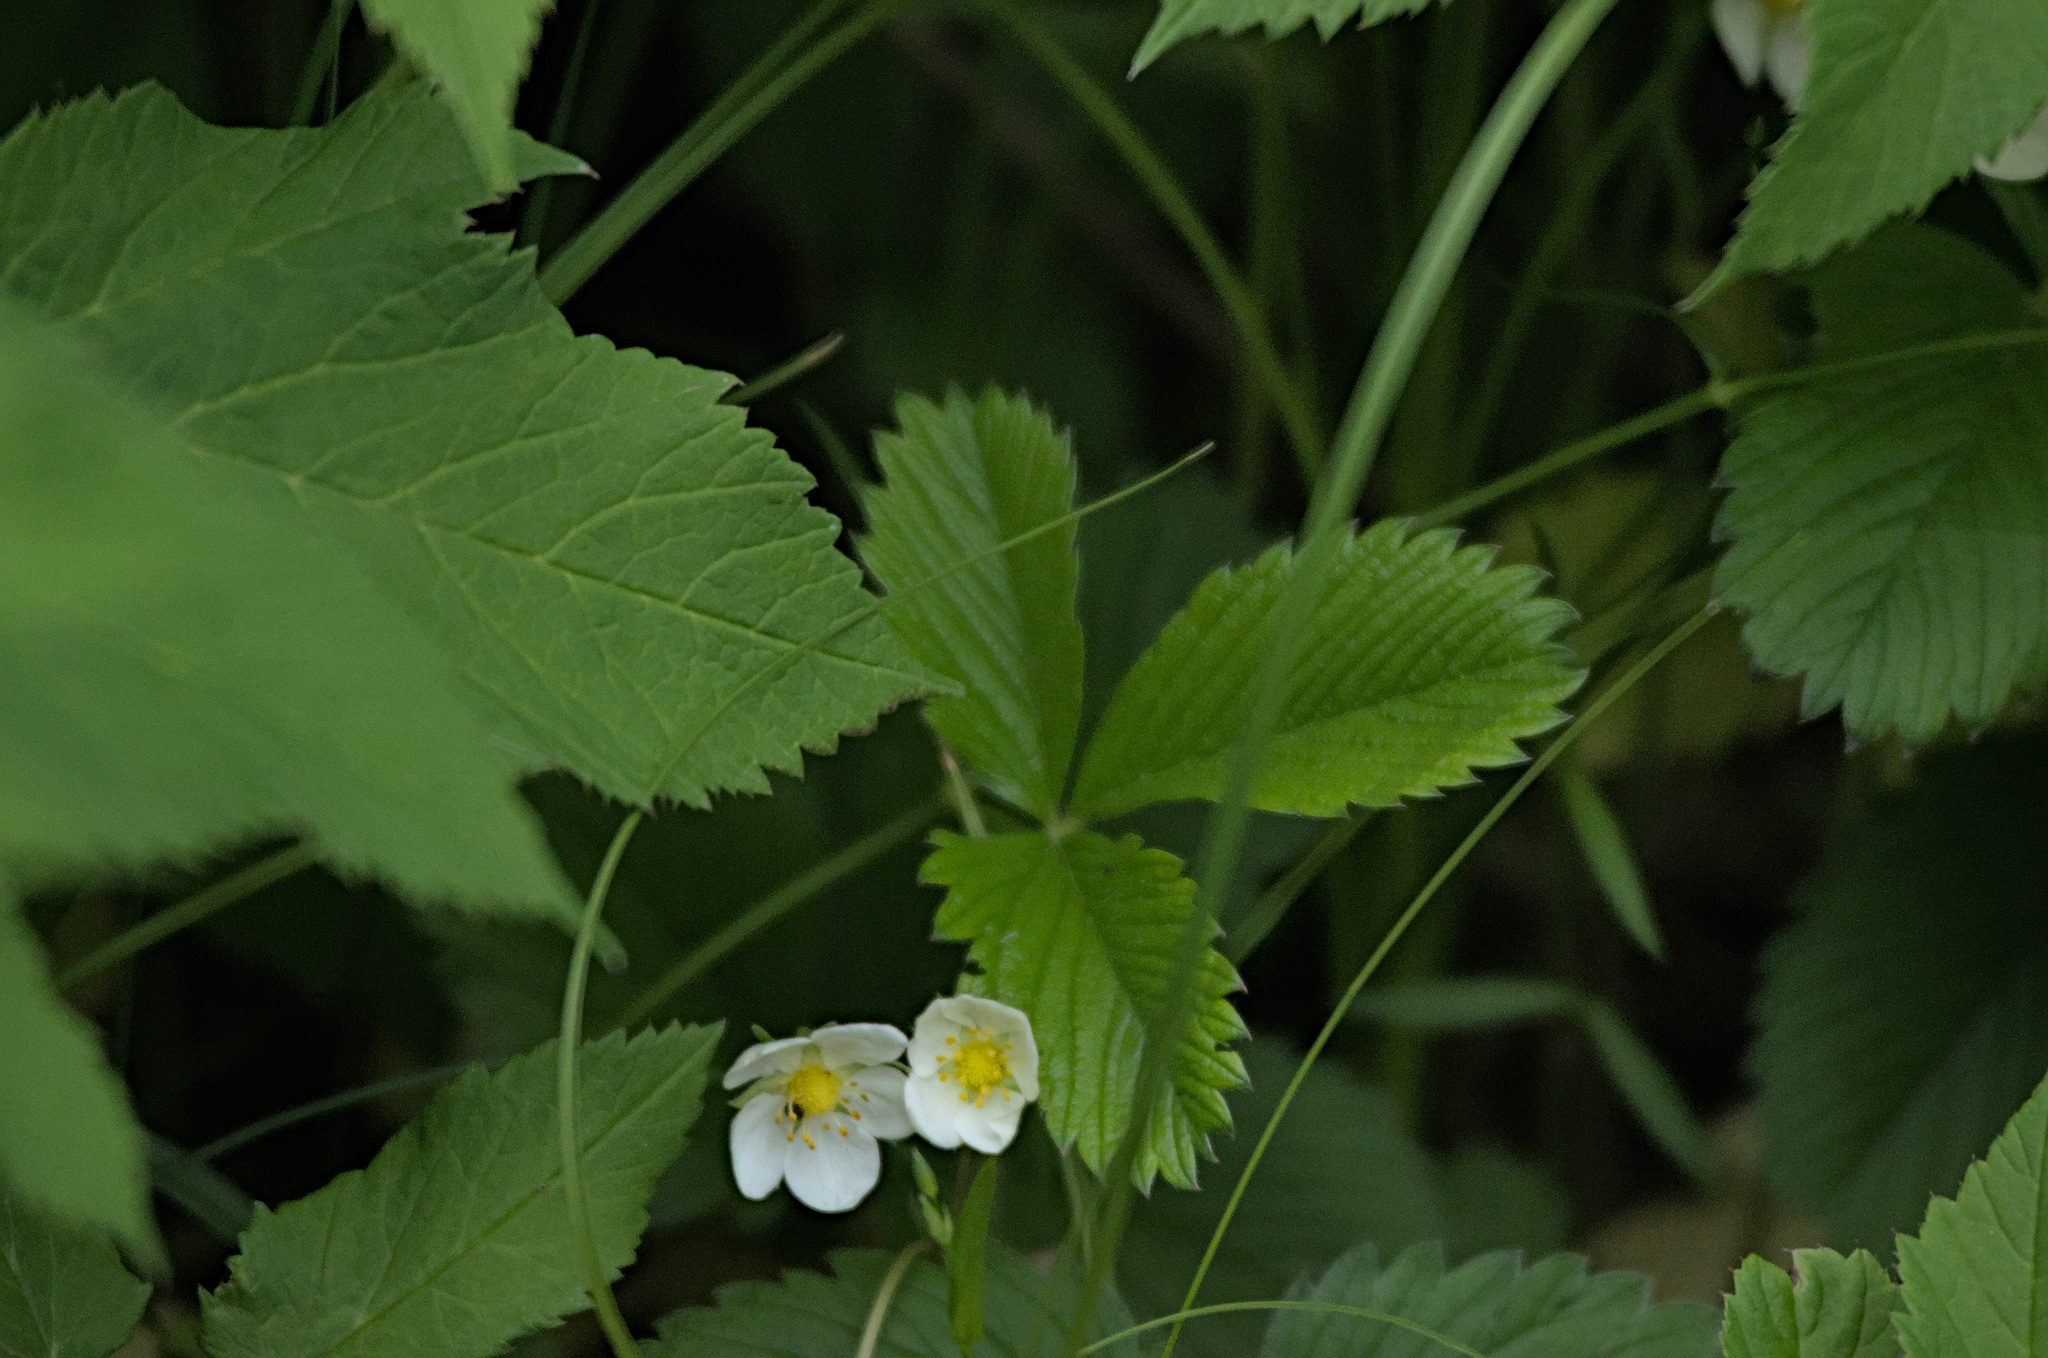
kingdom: Plantae
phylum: Tracheophyta
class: Magnoliopsida
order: Rosales
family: Rosaceae
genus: Fragaria
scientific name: Fragaria viridis
